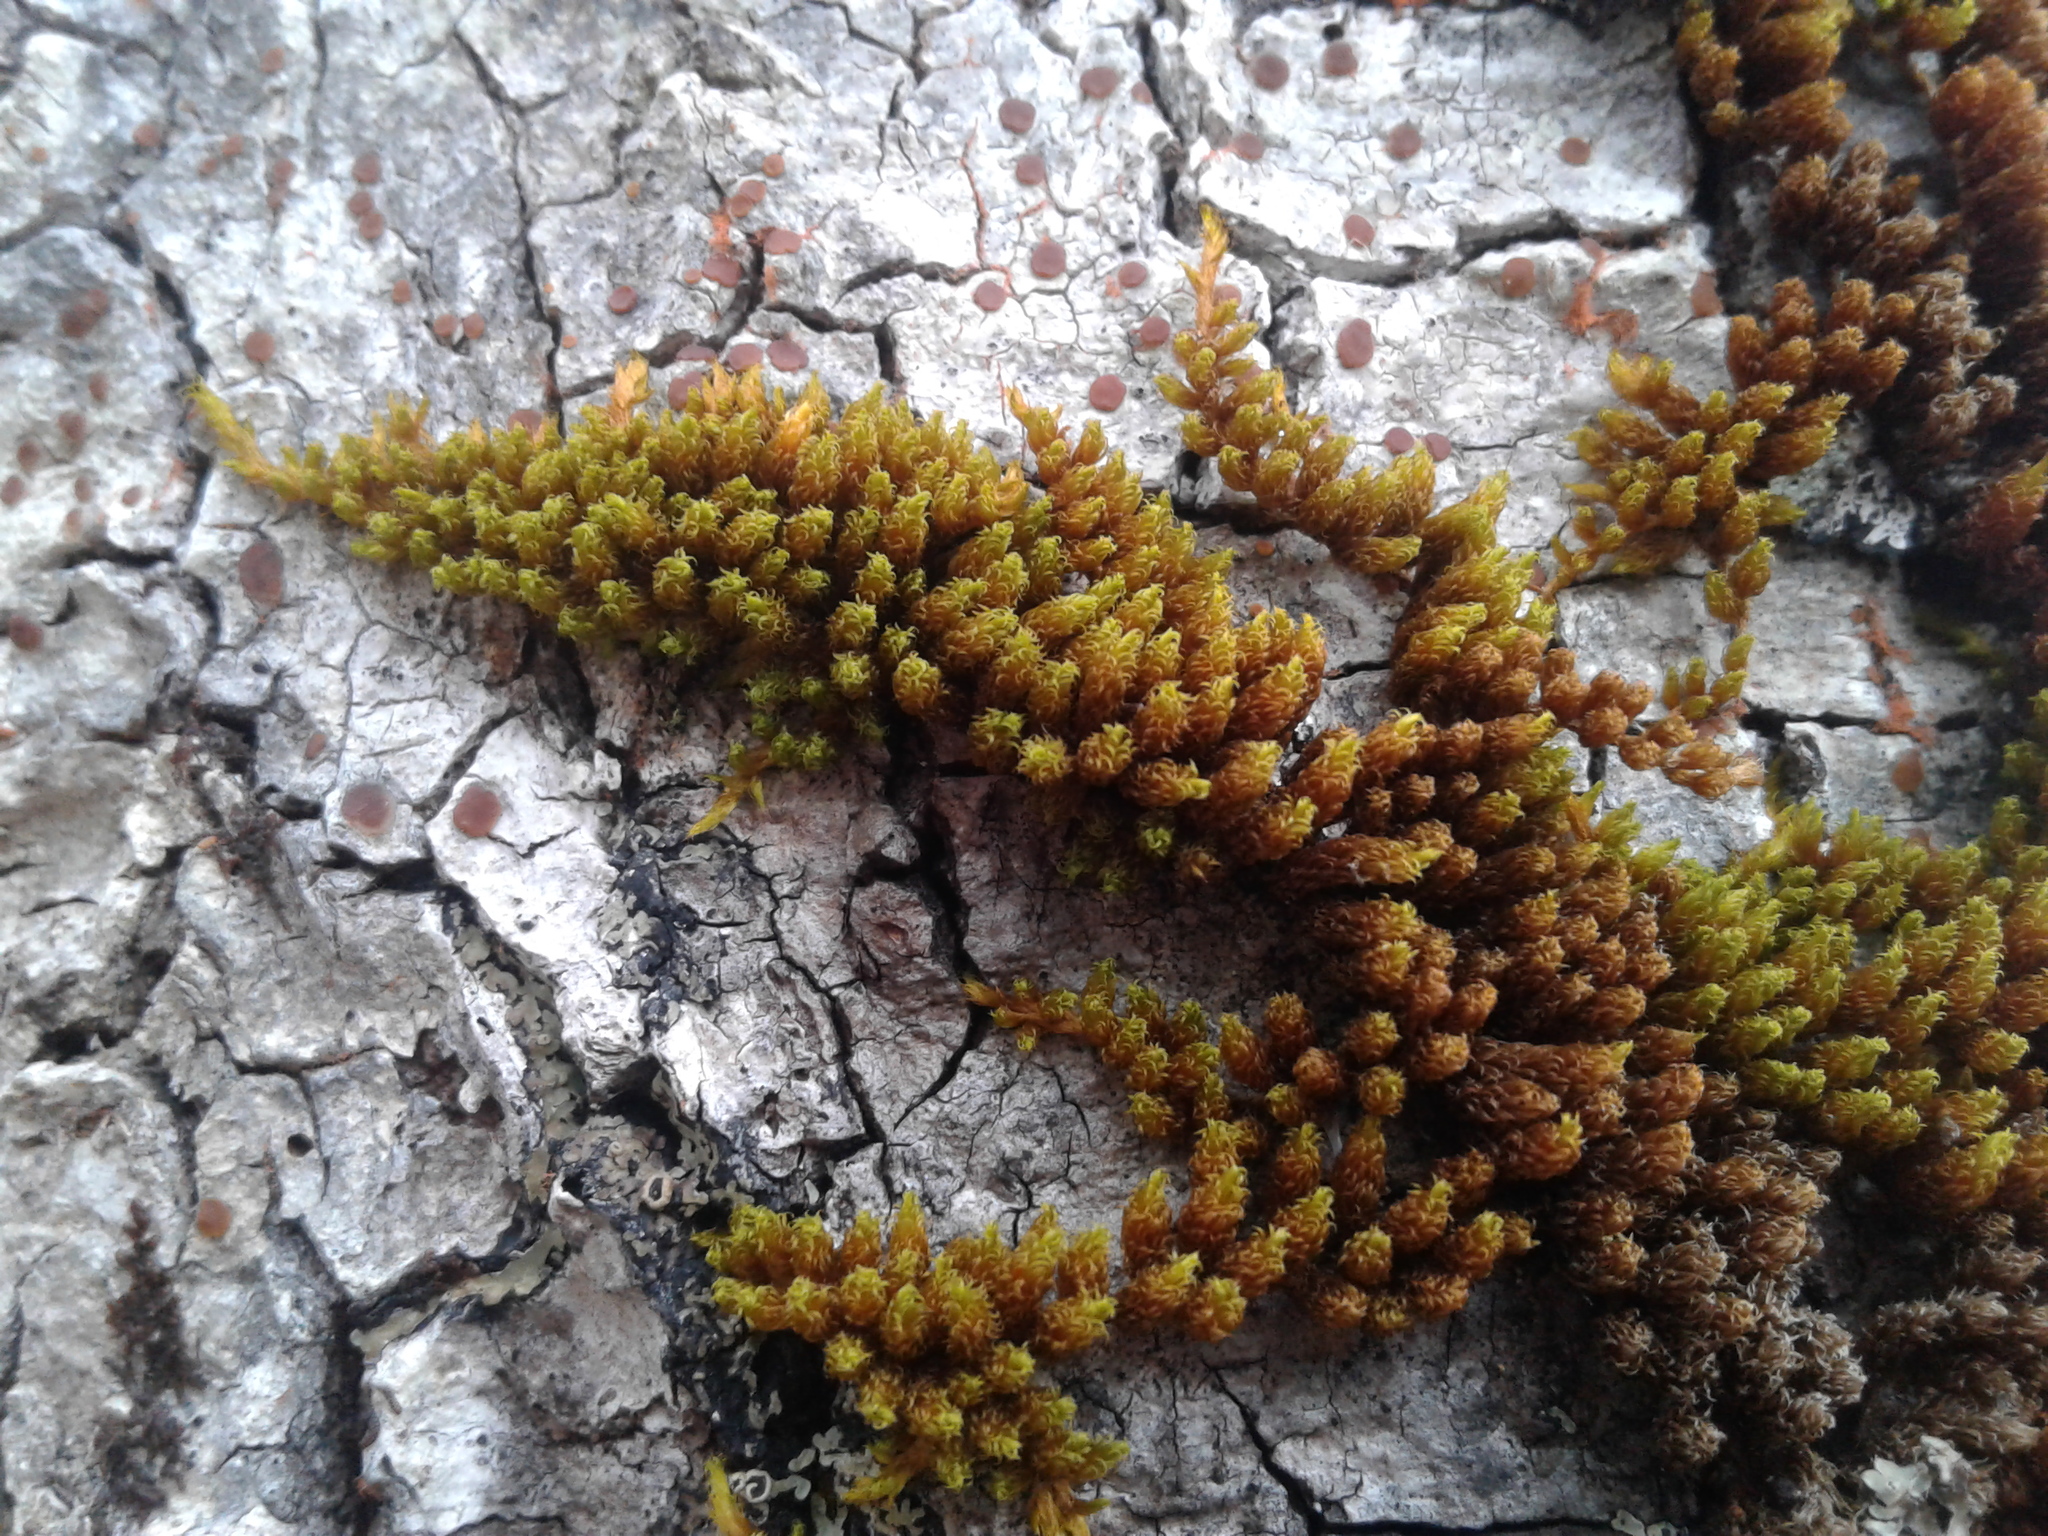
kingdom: Plantae
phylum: Bryophyta
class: Bryopsida
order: Orthotrichales
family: Orthotrichaceae
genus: Macromitrium
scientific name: Macromitrium
